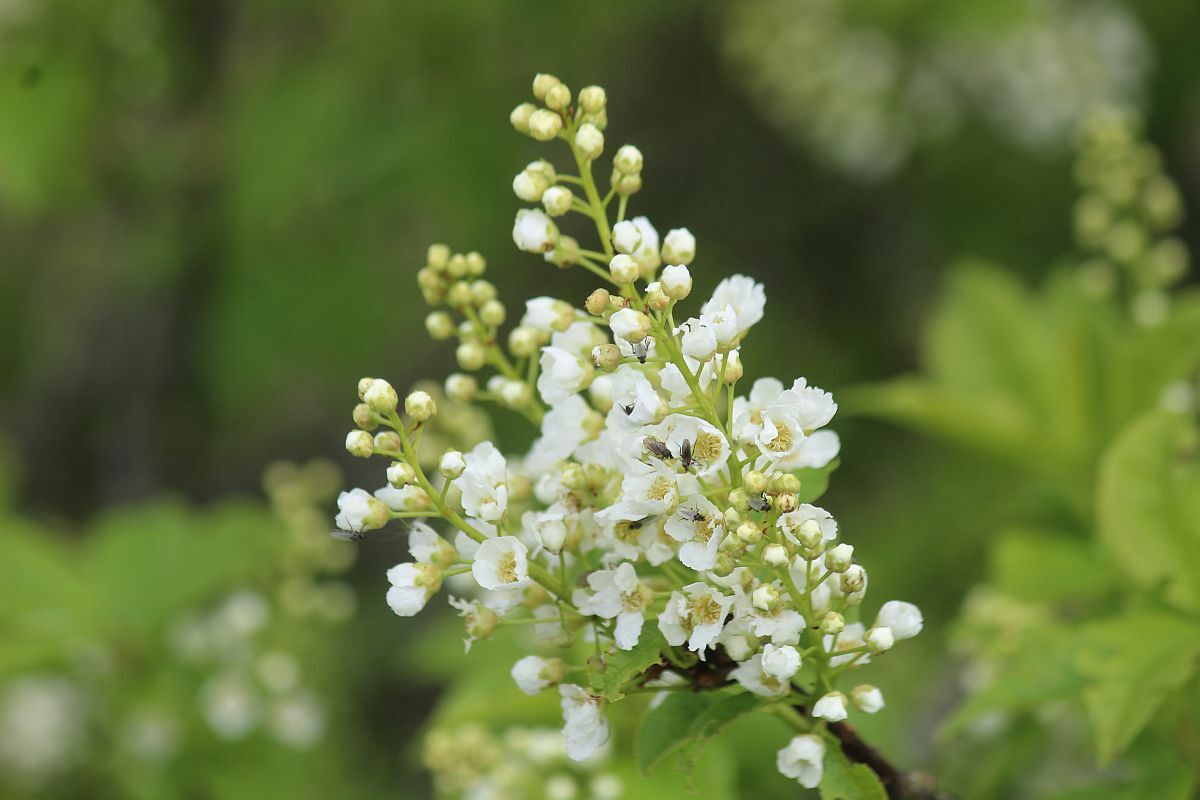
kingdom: Plantae
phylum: Tracheophyta
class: Magnoliopsida
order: Rosales
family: Rosaceae
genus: Prunus
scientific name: Prunus padus
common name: Bird cherry
